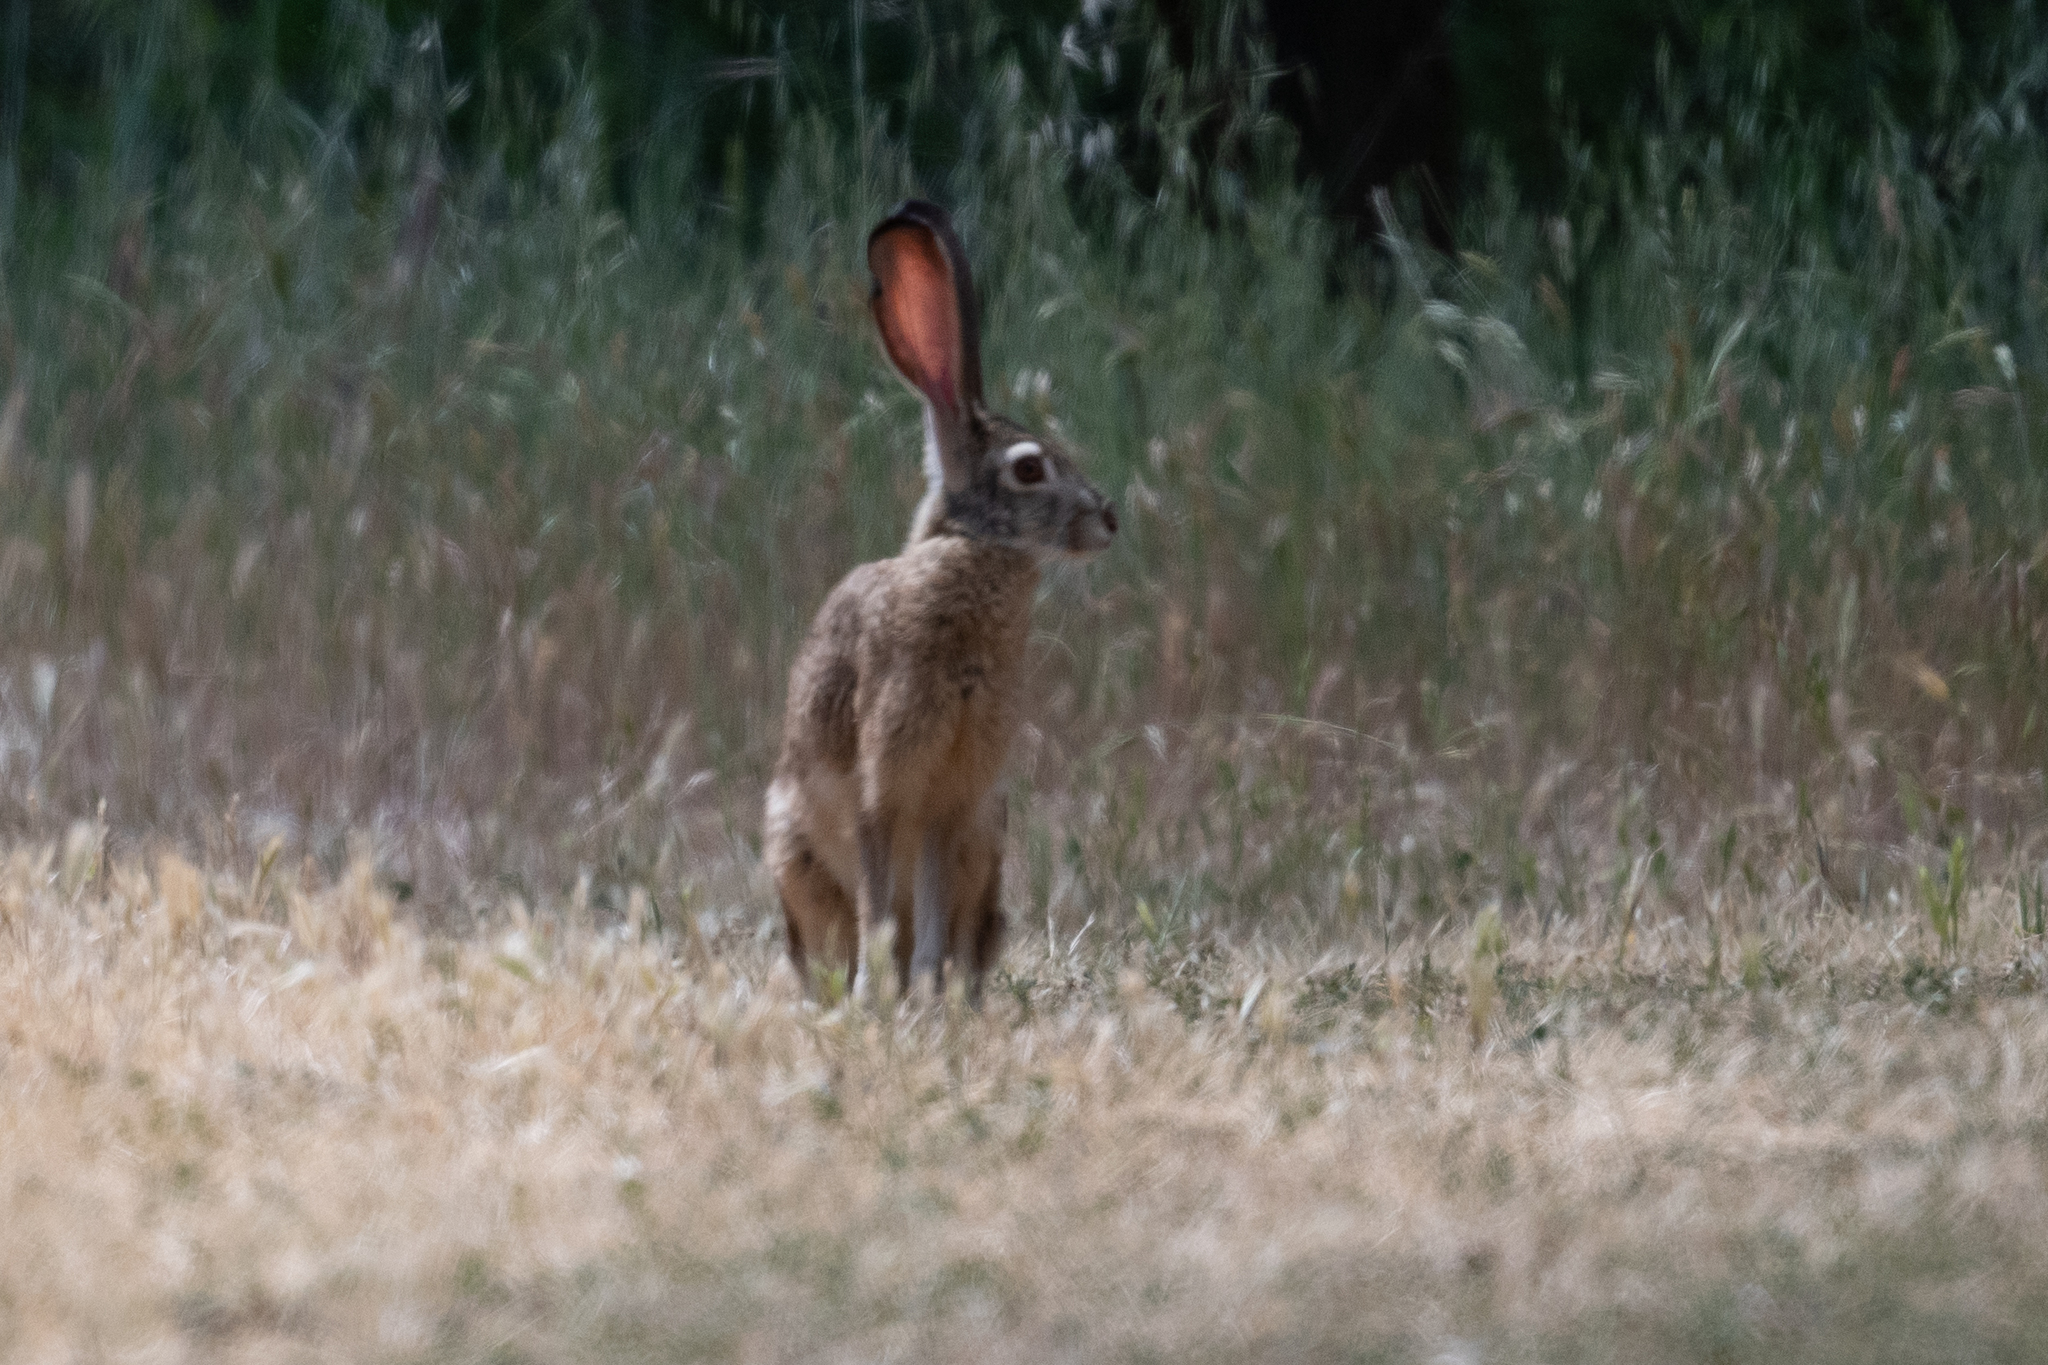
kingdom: Animalia
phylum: Chordata
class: Mammalia
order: Lagomorpha
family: Leporidae
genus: Lepus
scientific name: Lepus californicus
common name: Black-tailed jackrabbit
